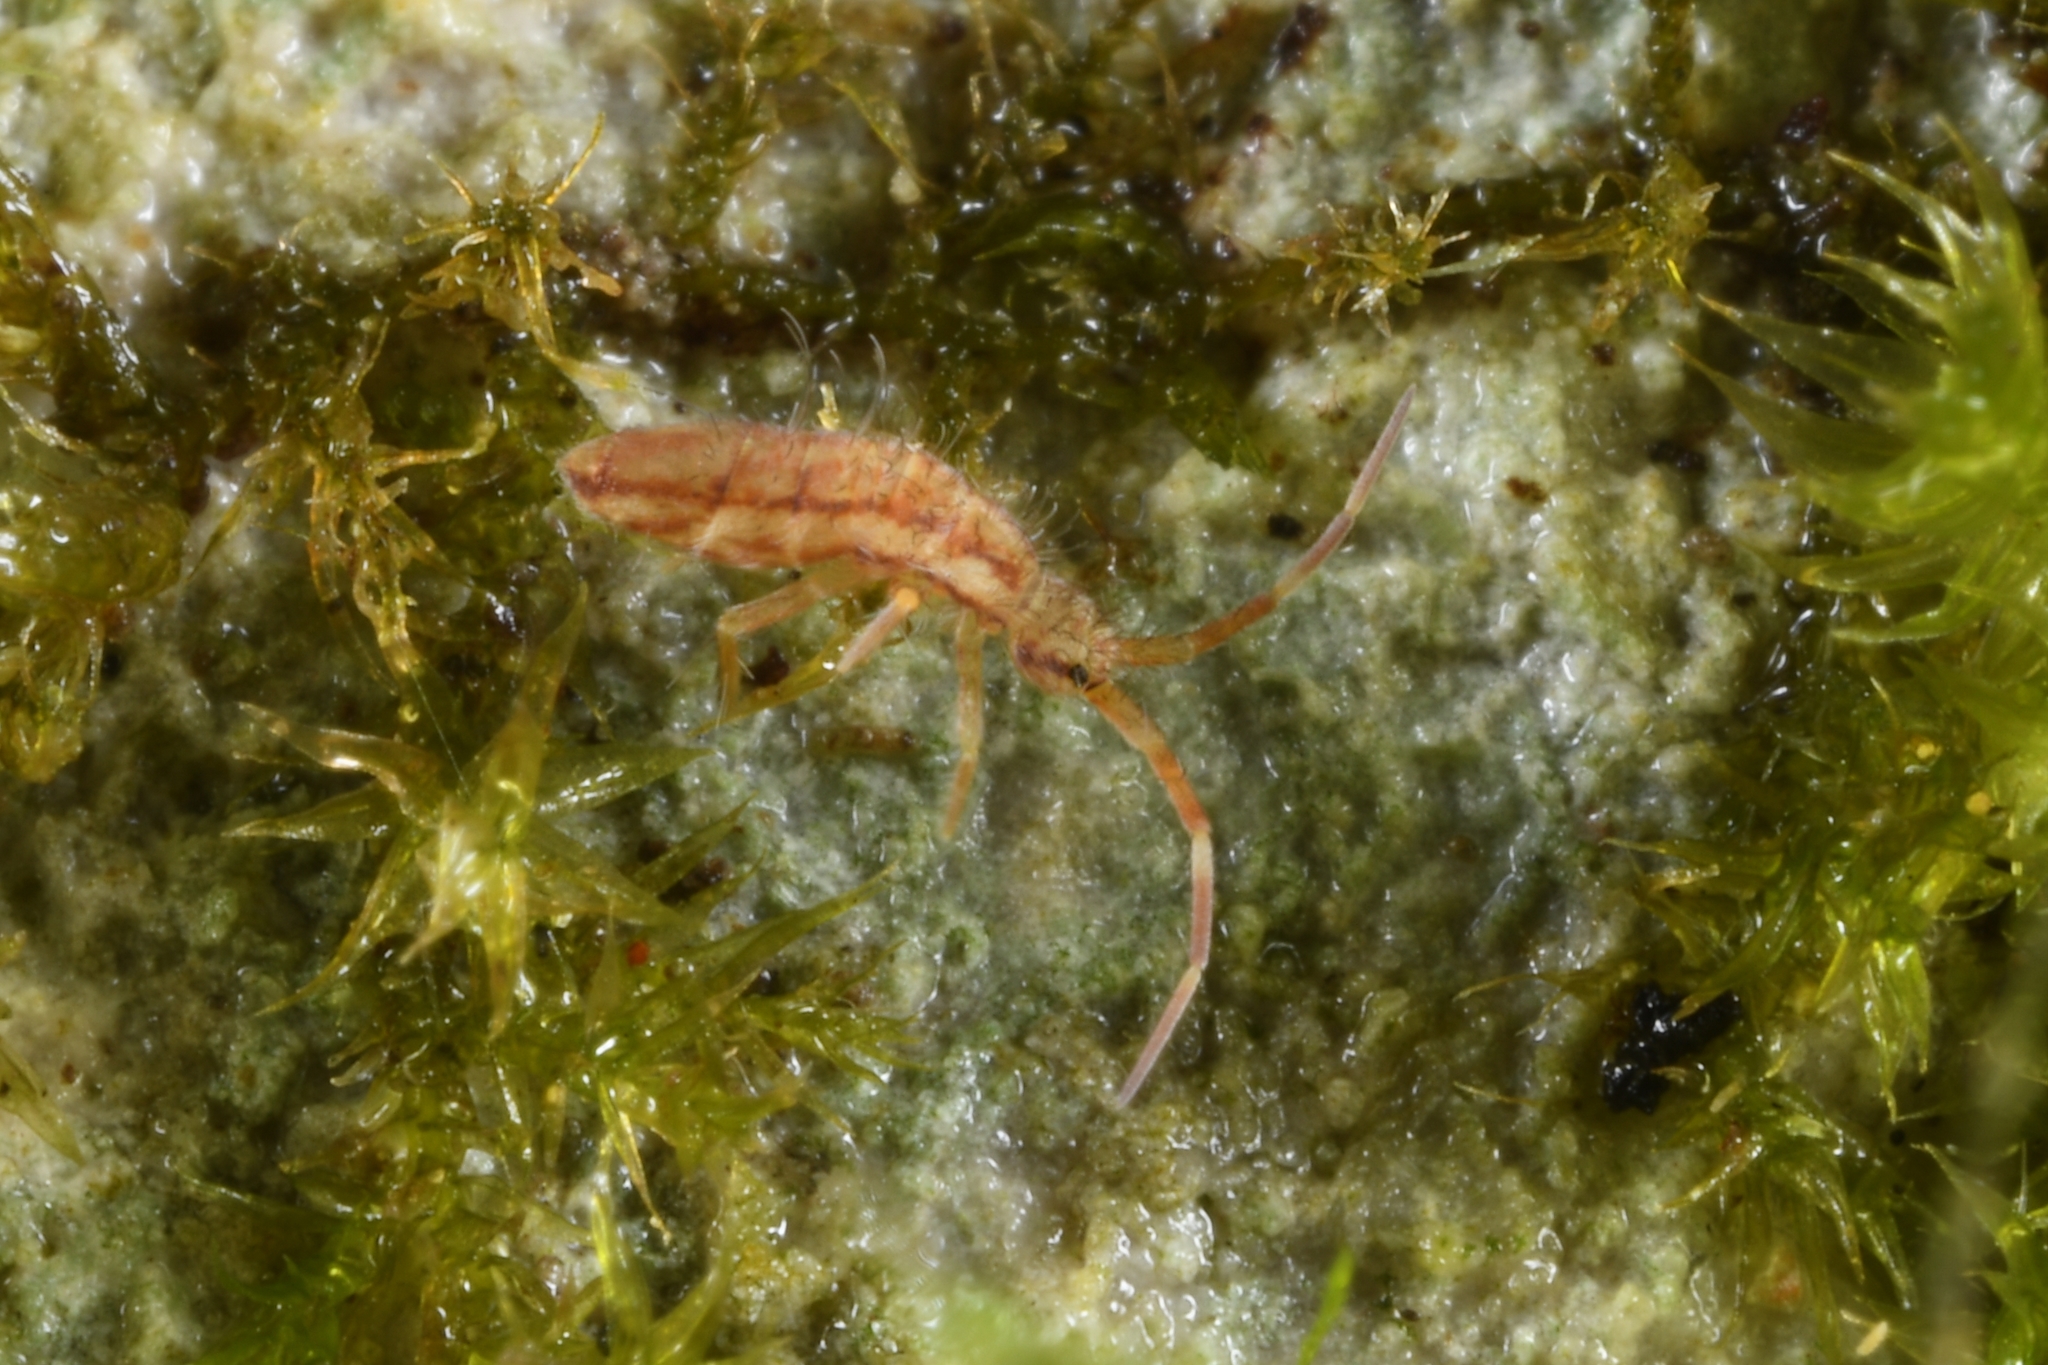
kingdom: Animalia
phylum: Arthropoda
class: Collembola
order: Entomobryomorpha
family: Entomobryidae
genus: Entomobrya
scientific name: Entomobrya nivalis
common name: Cosmopolitan springtail
